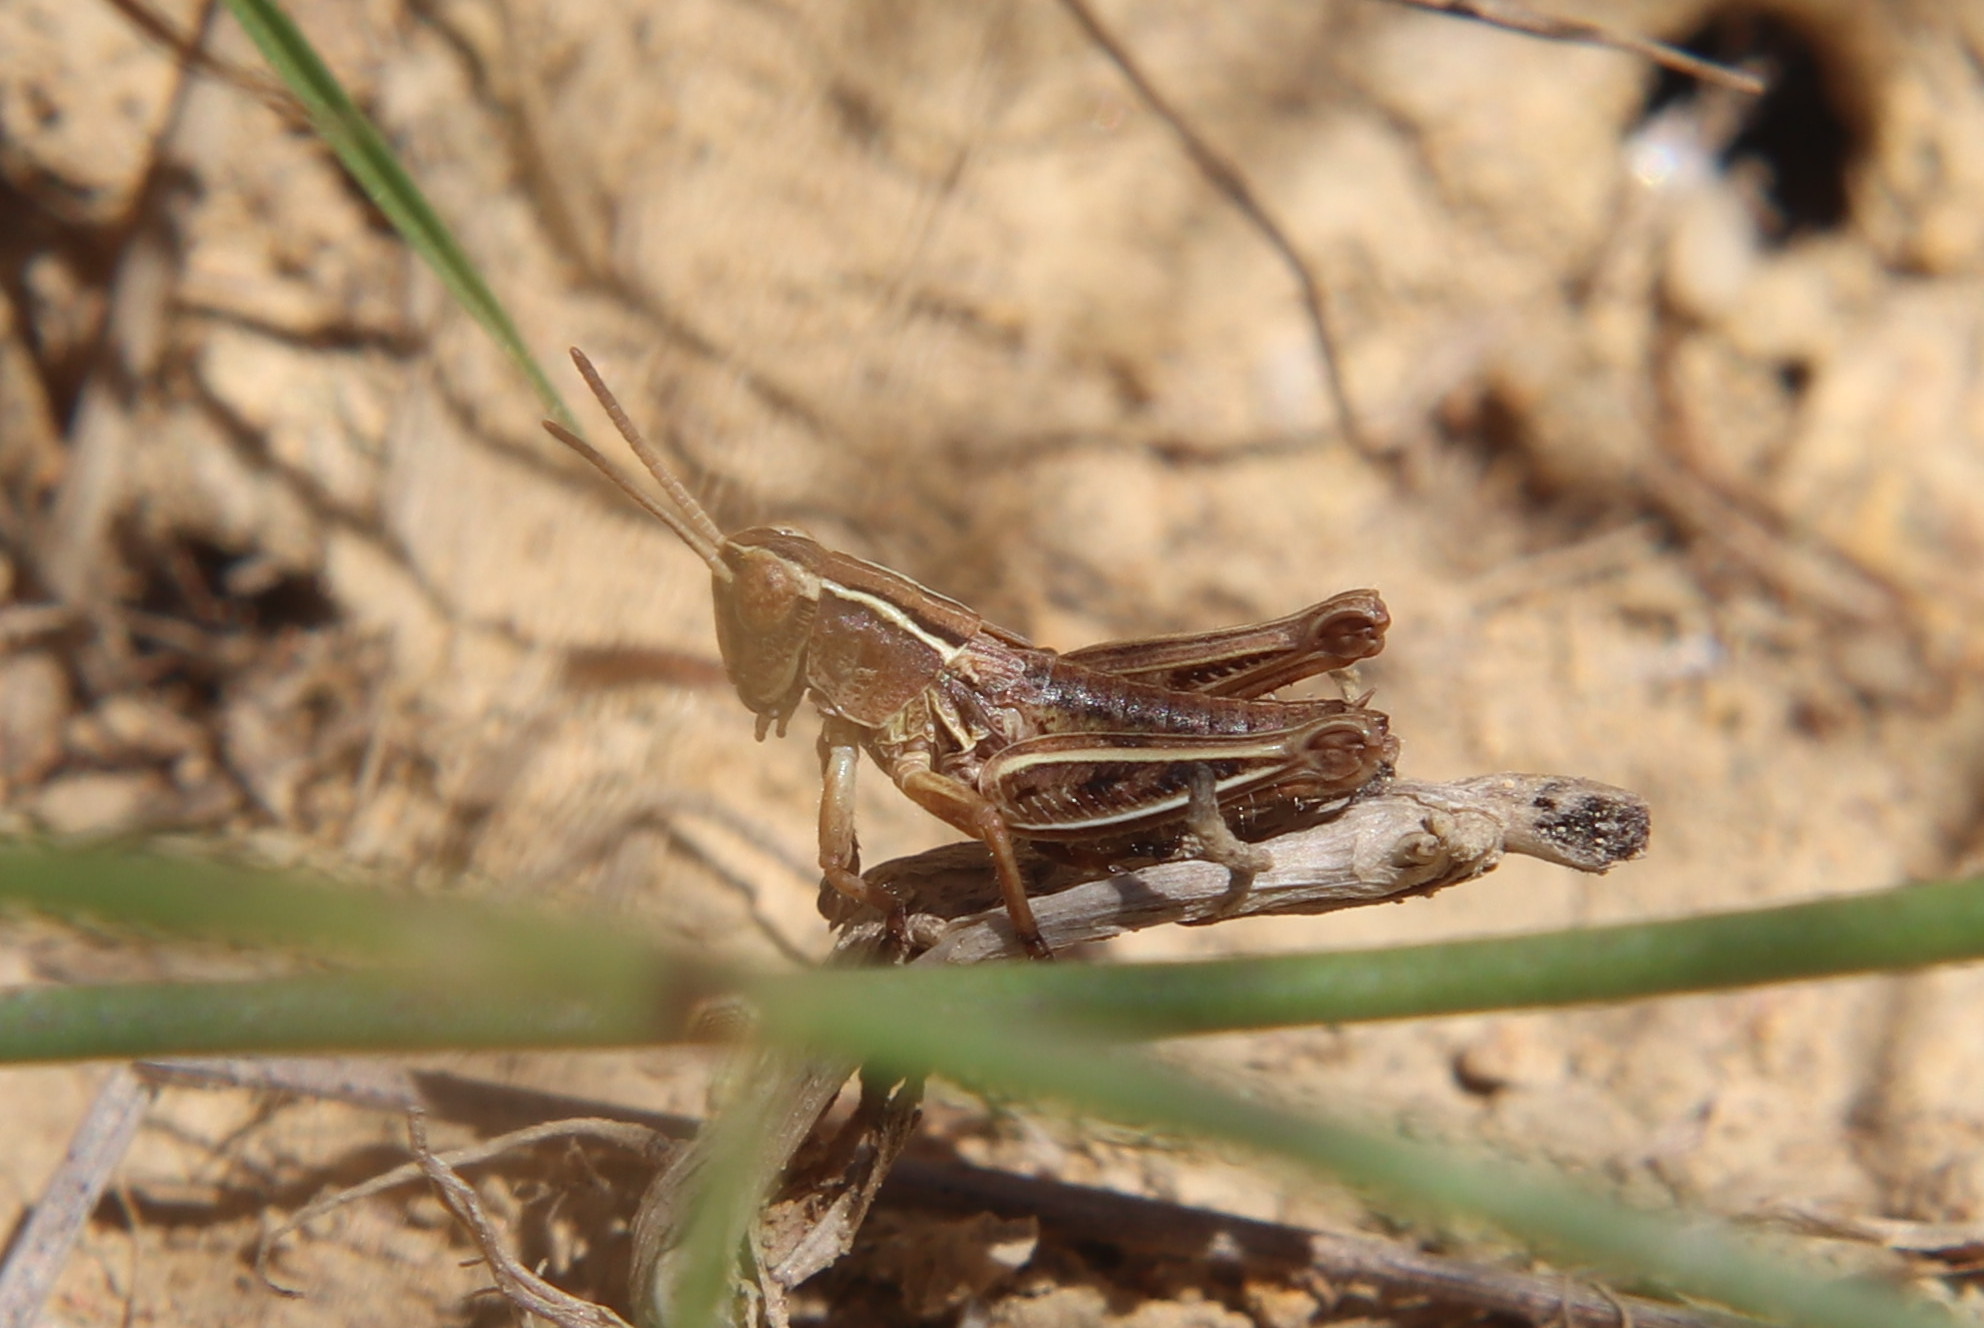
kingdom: Animalia
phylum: Arthropoda
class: Insecta
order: Orthoptera
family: Acrididae
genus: Phaulacridium
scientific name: Phaulacridium marginale
